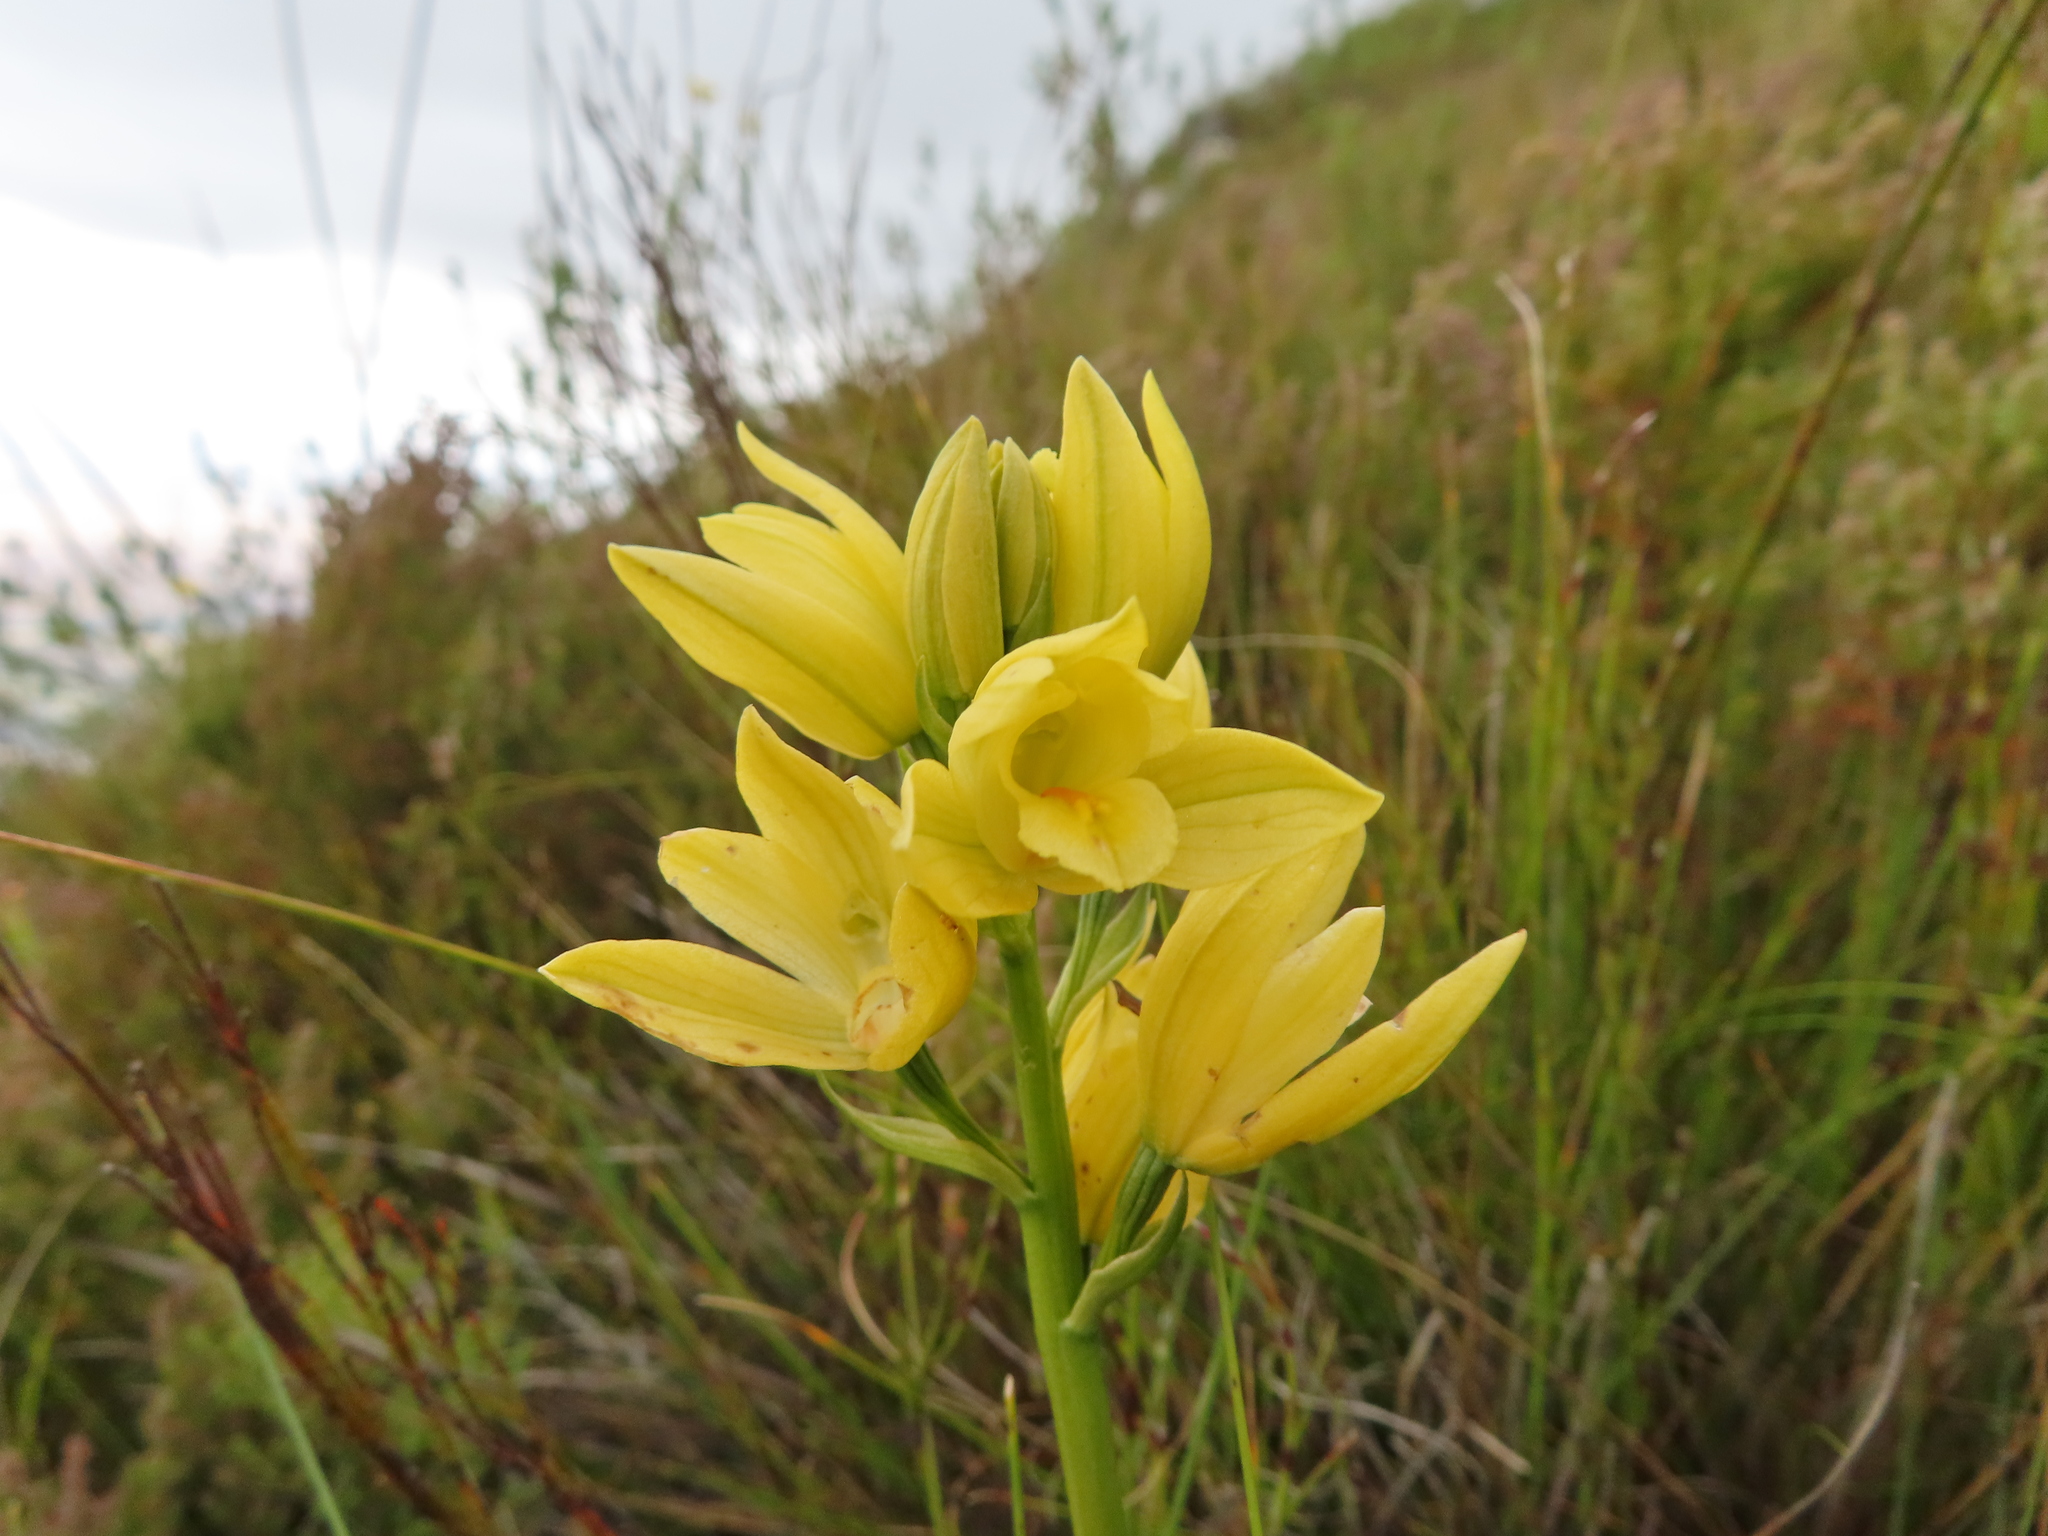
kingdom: Plantae
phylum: Tracheophyta
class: Liliopsida
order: Asparagales
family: Orchidaceae
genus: Eulophia
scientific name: Eulophia tabularis
